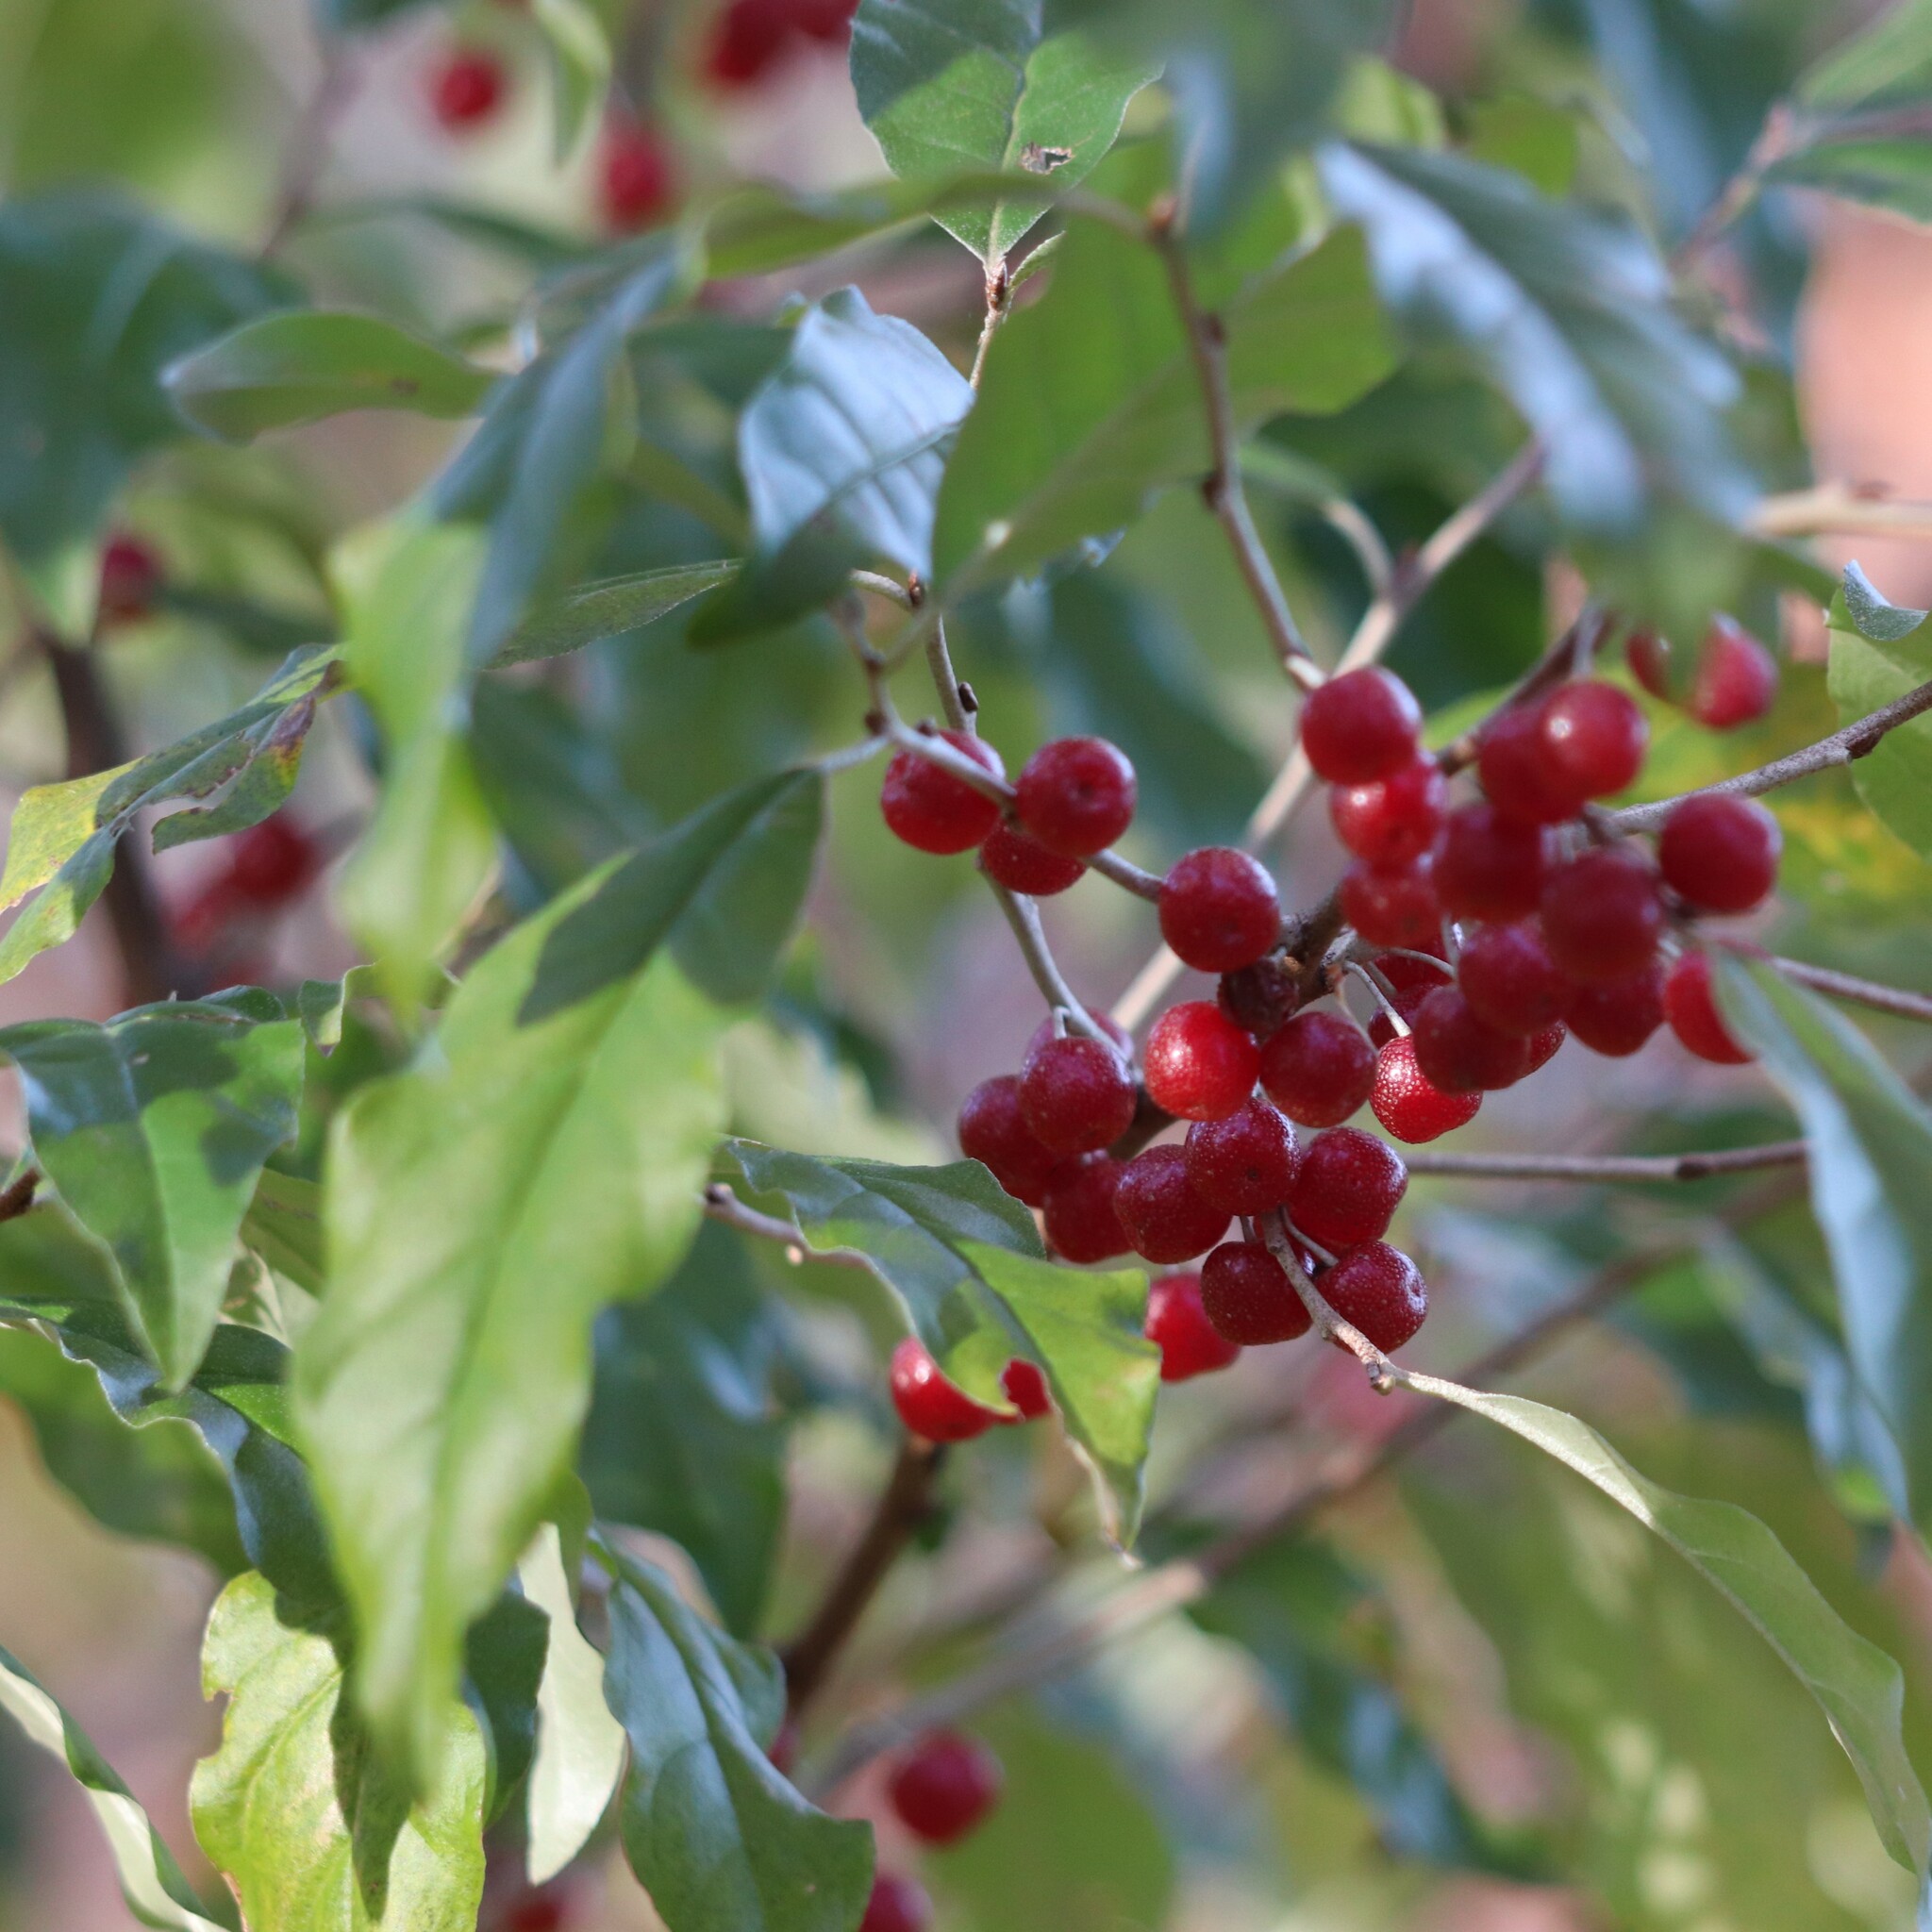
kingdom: Plantae
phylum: Tracheophyta
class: Magnoliopsida
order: Rosales
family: Elaeagnaceae
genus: Elaeagnus
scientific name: Elaeagnus umbellata
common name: Autumn olive
